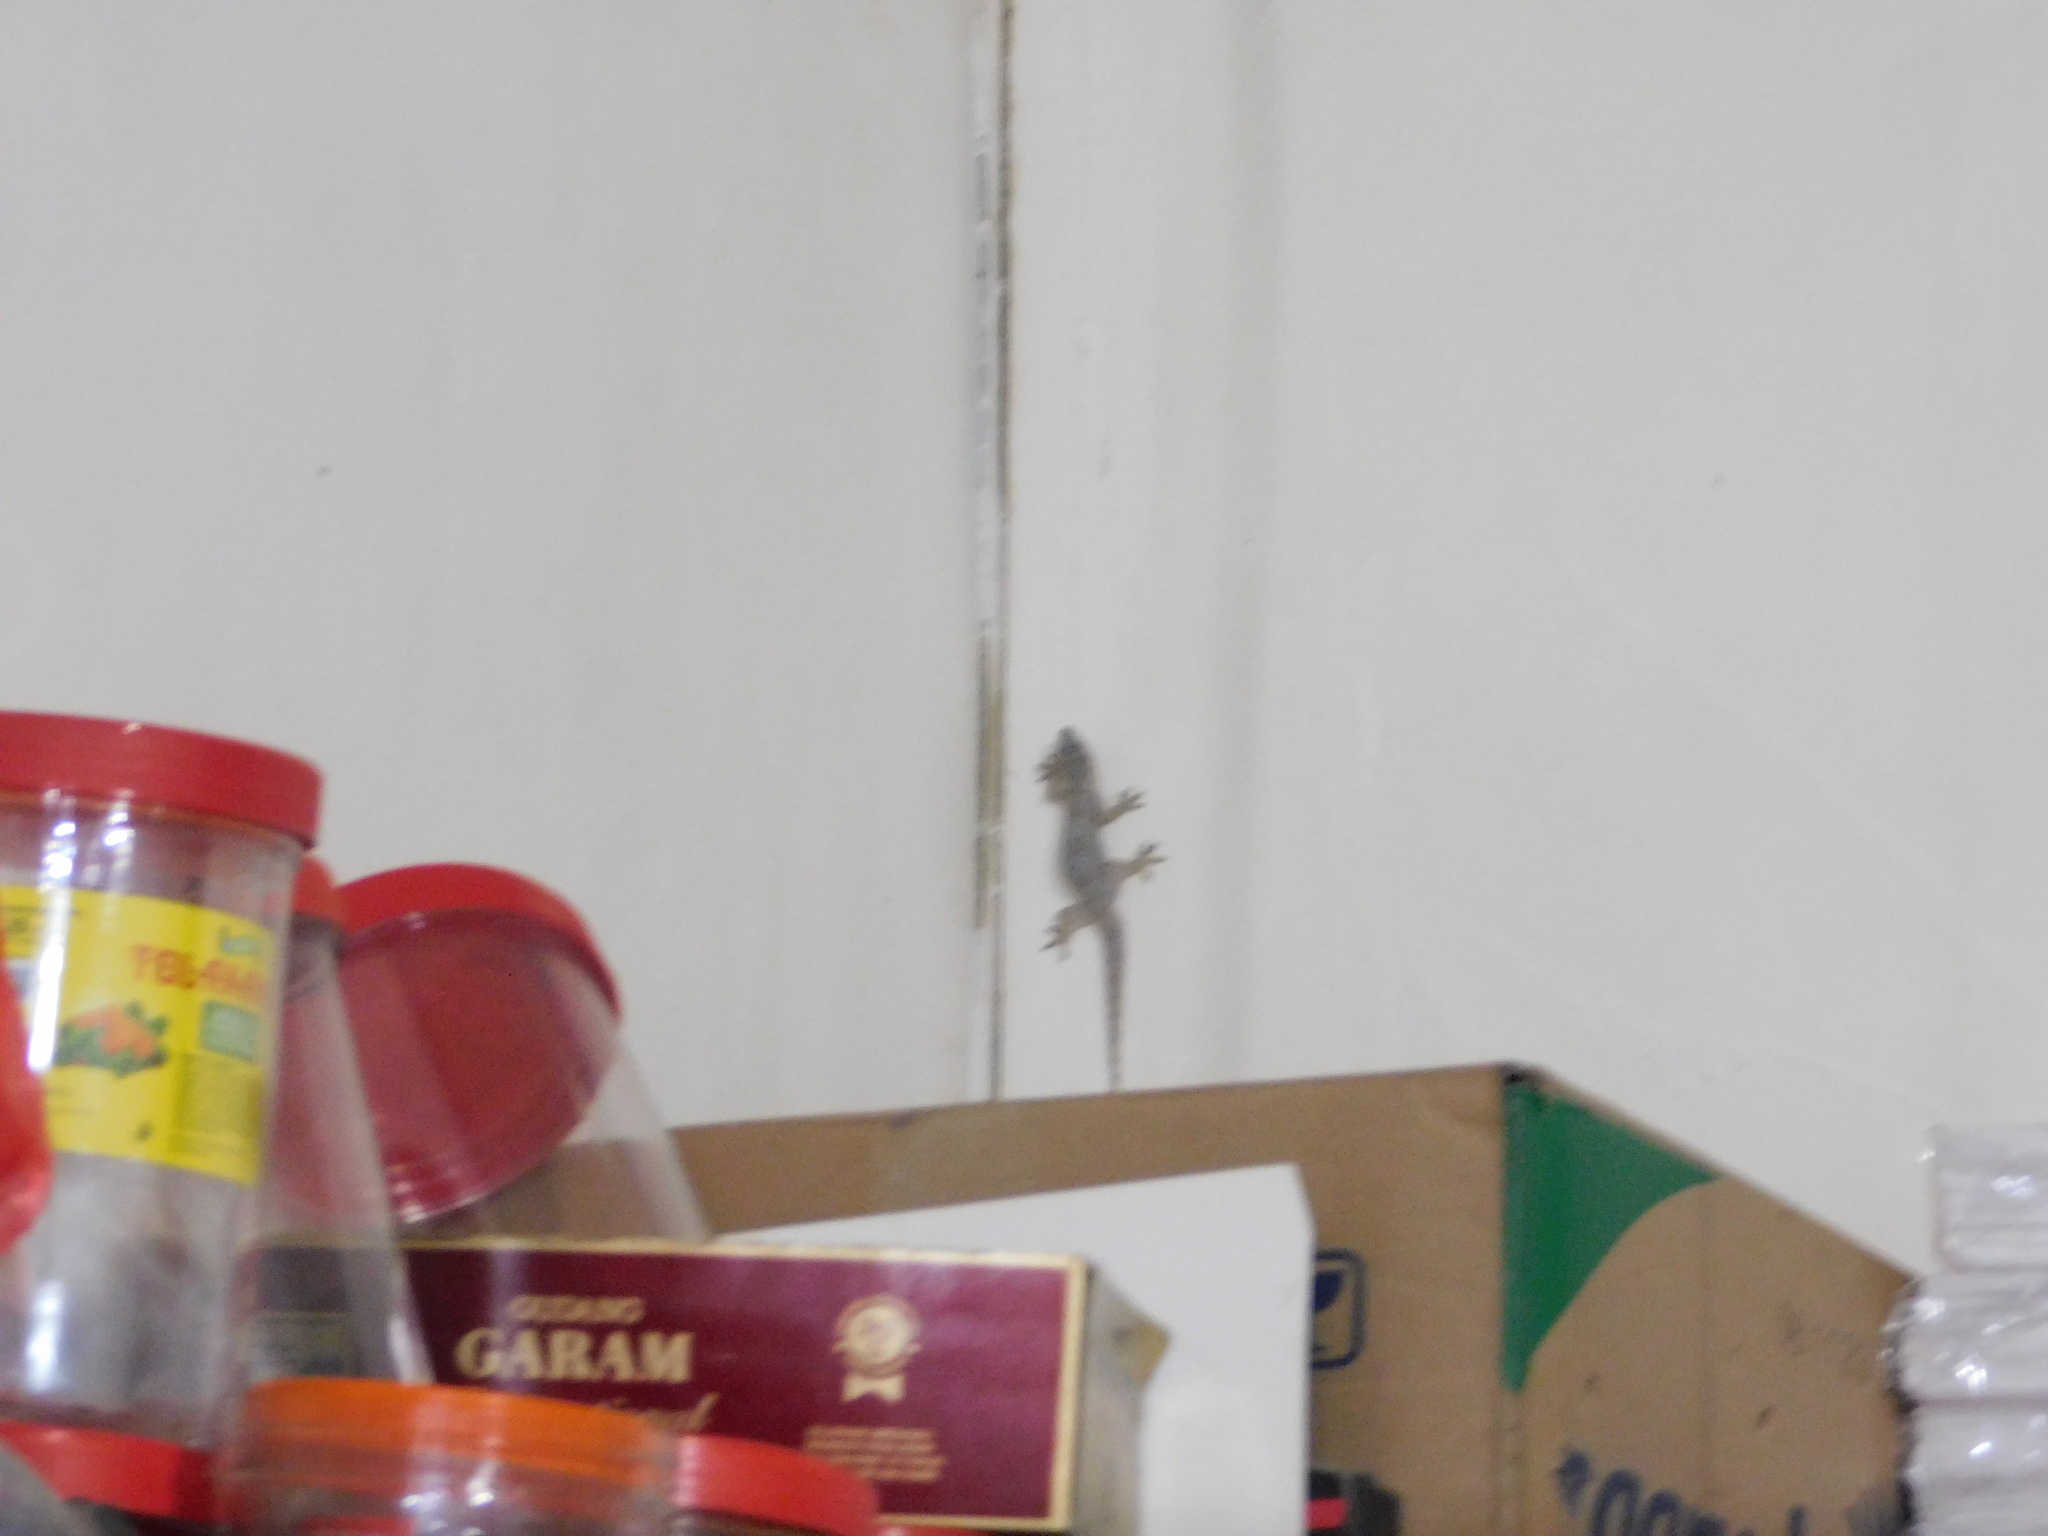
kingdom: Animalia
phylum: Chordata
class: Squamata
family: Gekkonidae
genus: Hemidactylus
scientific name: Hemidactylus platyurus
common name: Flat-tailed house gecko
